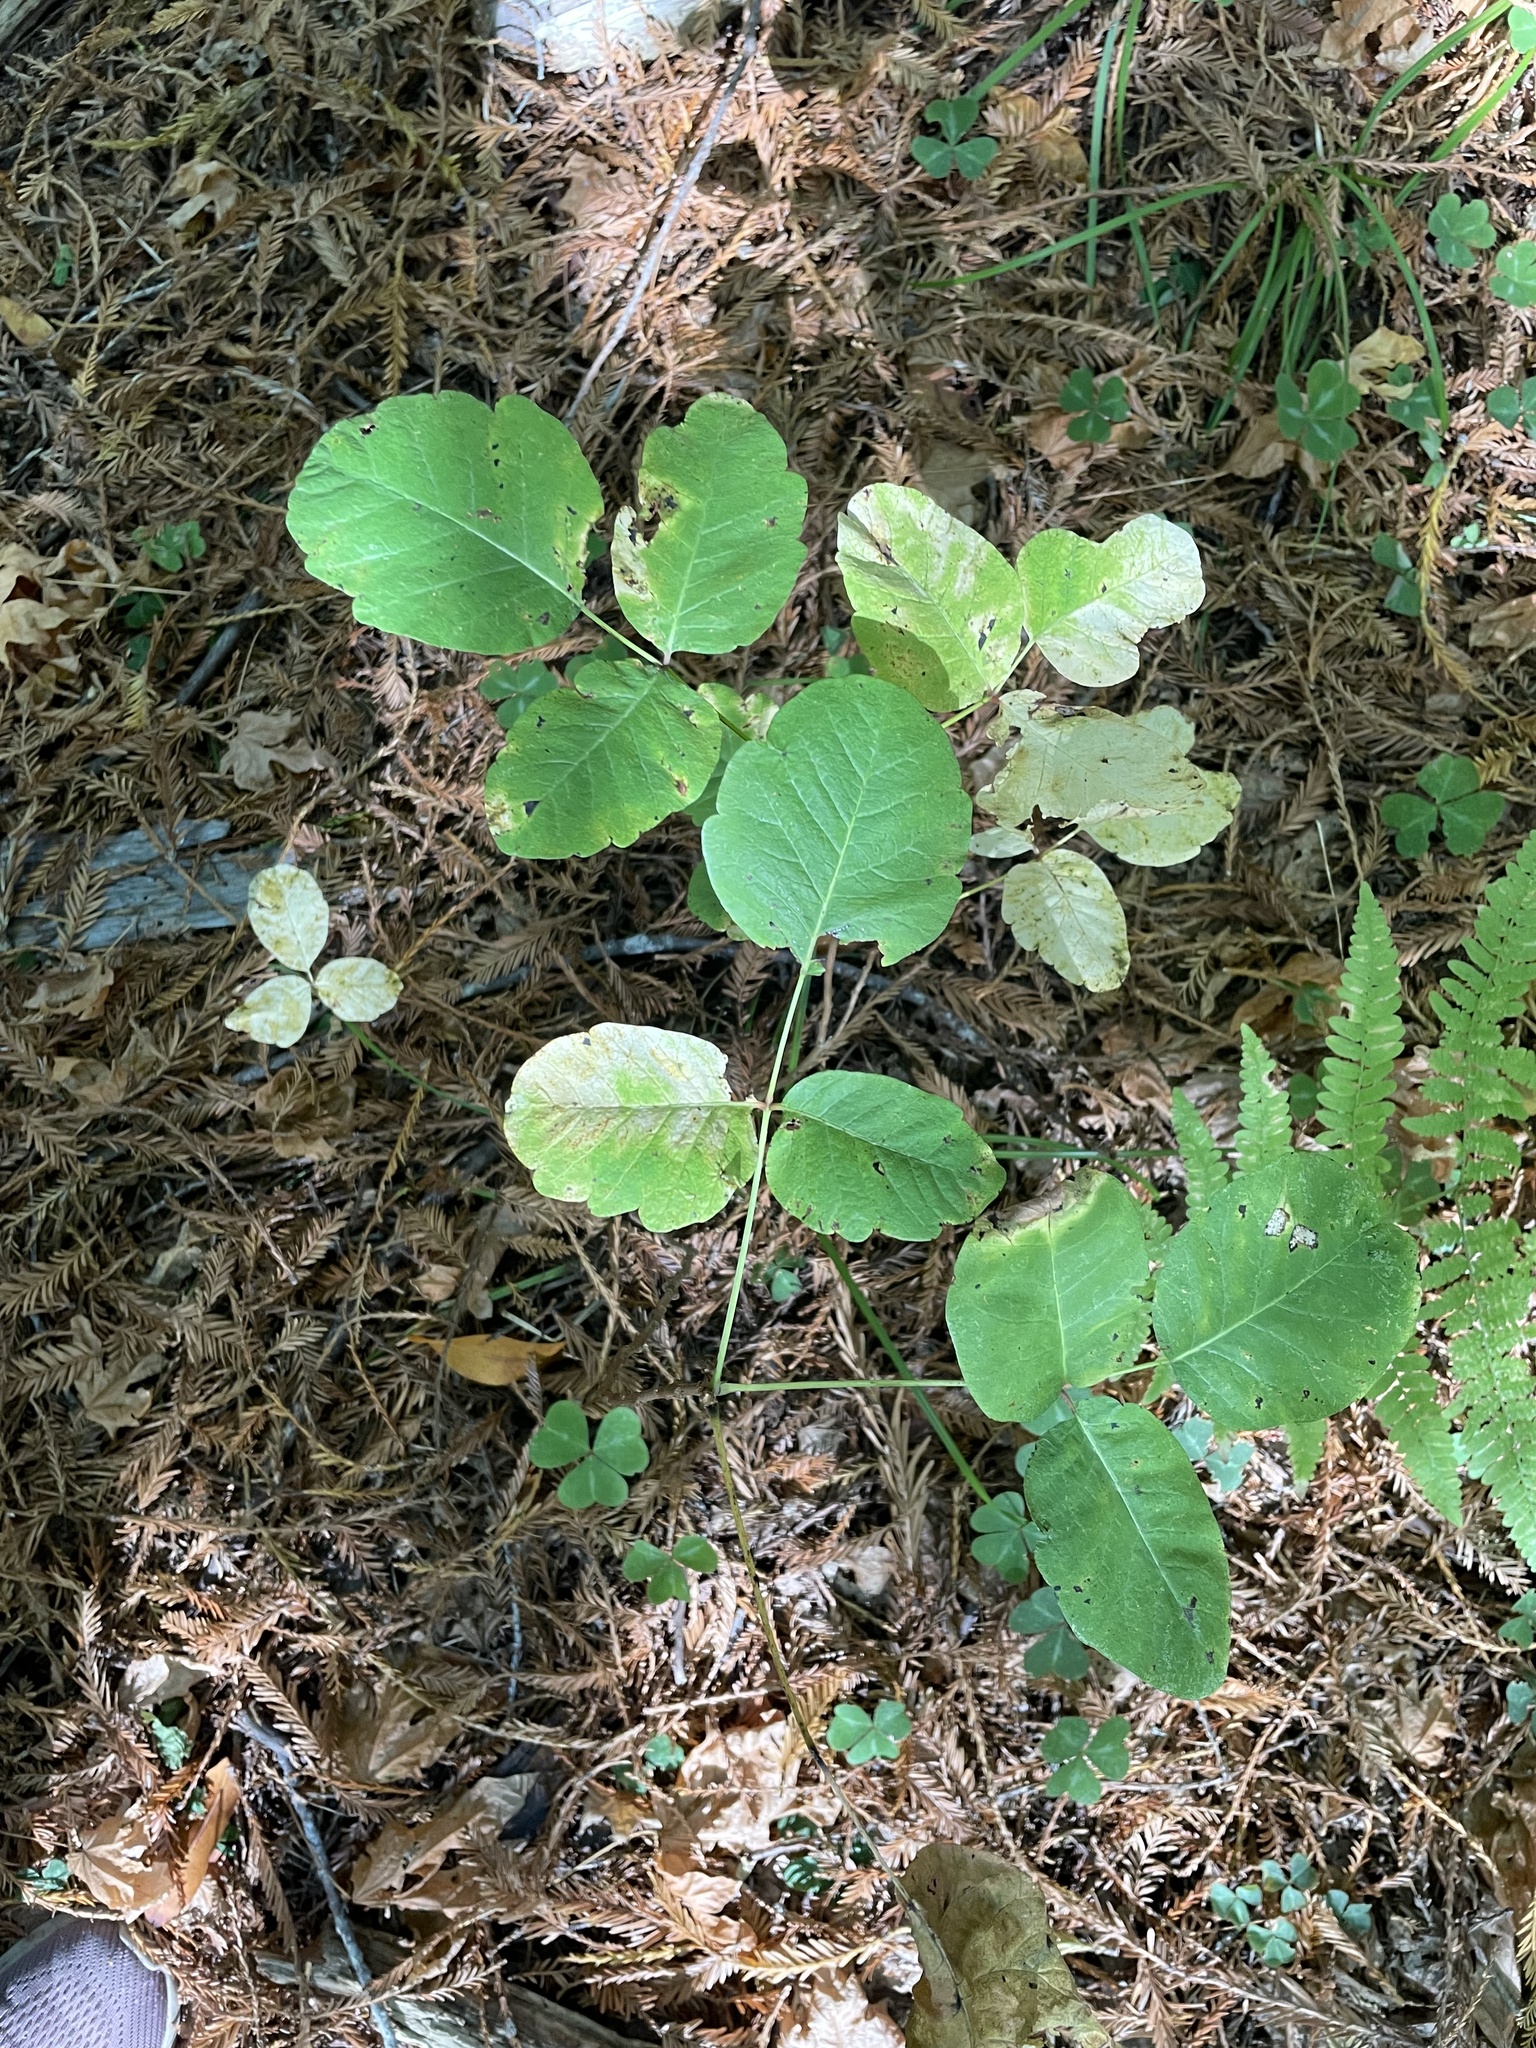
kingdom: Plantae
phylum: Tracheophyta
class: Magnoliopsida
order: Sapindales
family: Anacardiaceae
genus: Toxicodendron
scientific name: Toxicodendron diversilobum
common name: Pacific poison-oak
